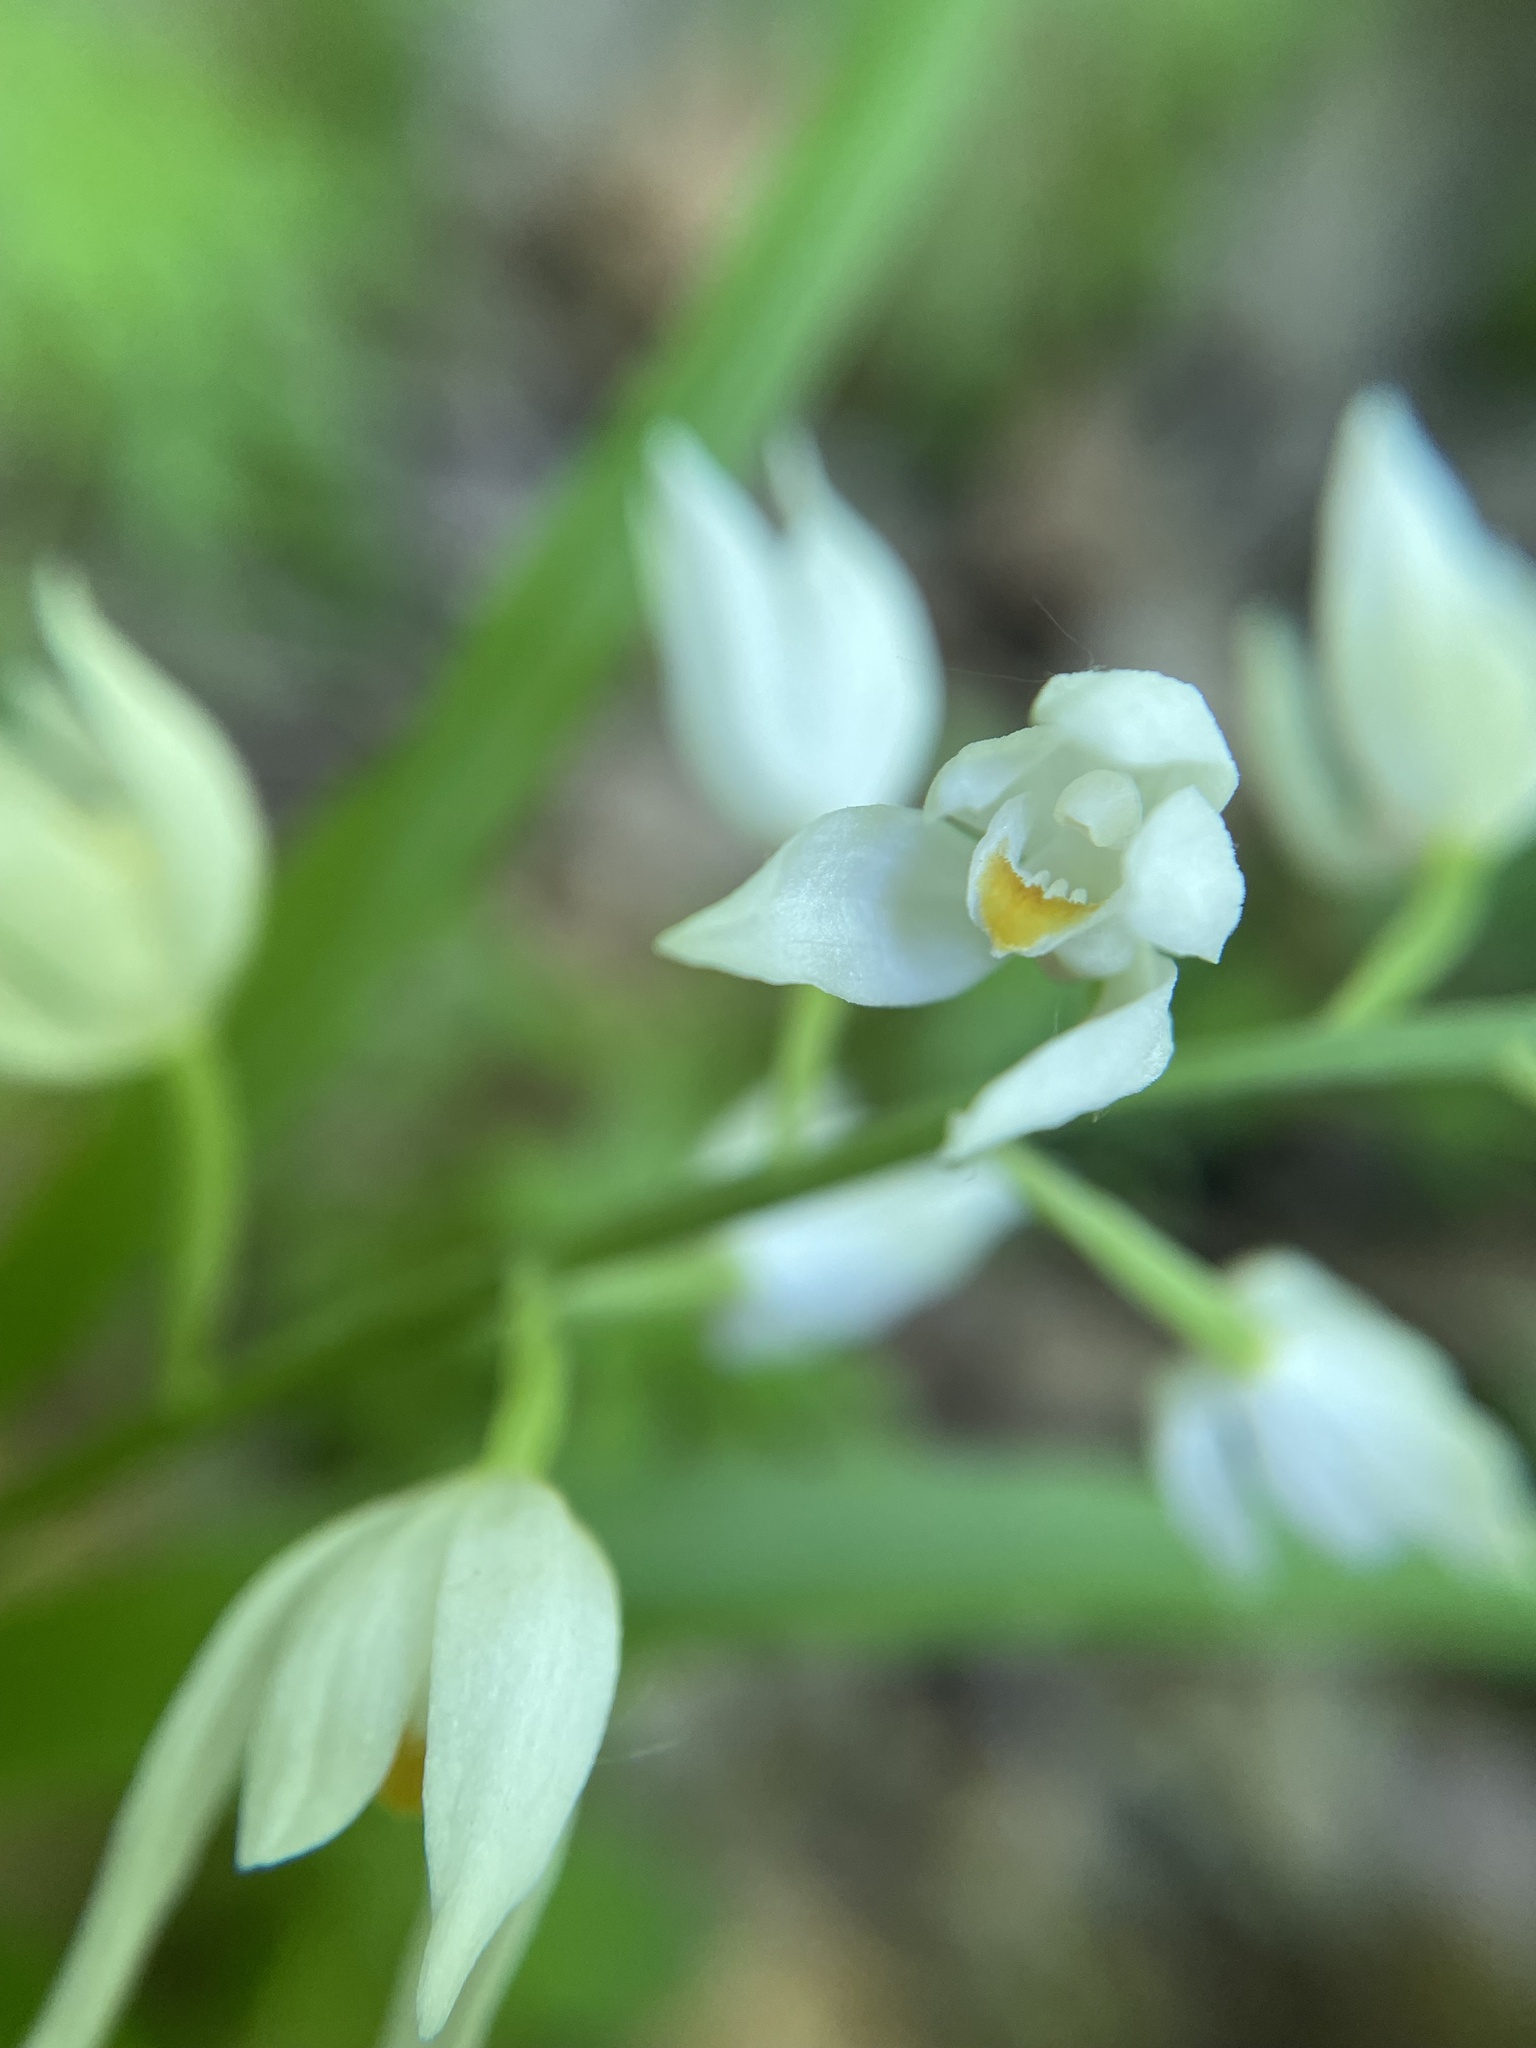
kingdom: Plantae
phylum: Tracheophyta
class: Liliopsida
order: Asparagales
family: Orchidaceae
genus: Cephalanthera
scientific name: Cephalanthera longifolia
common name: Narrow-leaved helleborine
